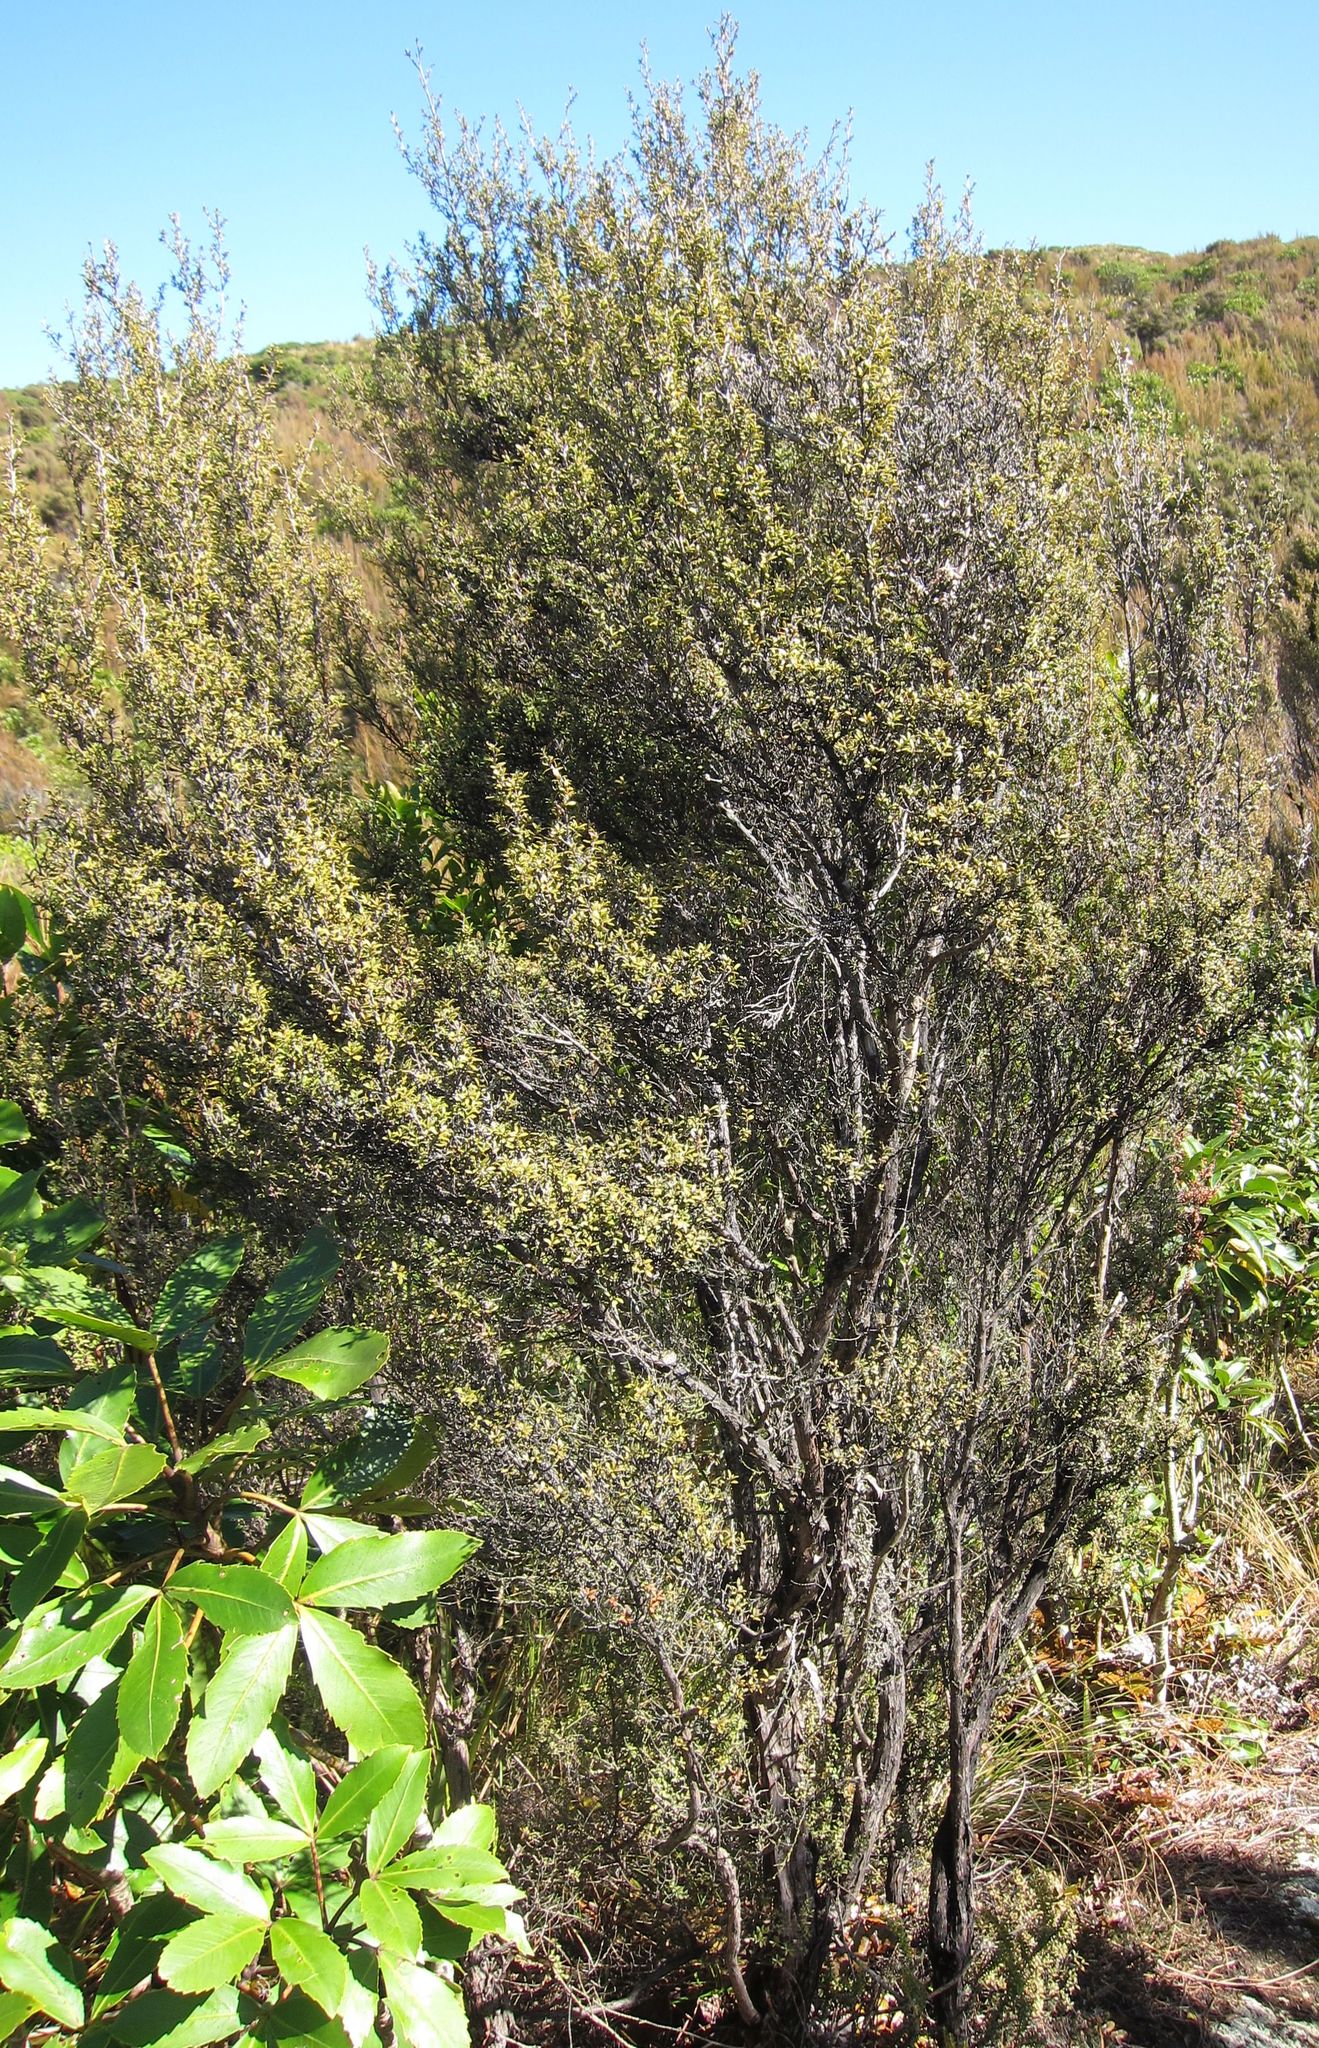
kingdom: Plantae
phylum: Tracheophyta
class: Magnoliopsida
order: Myrtales
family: Myrtaceae
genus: Leptospermum
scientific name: Leptospermum scoparium
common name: Broom tea-tree
